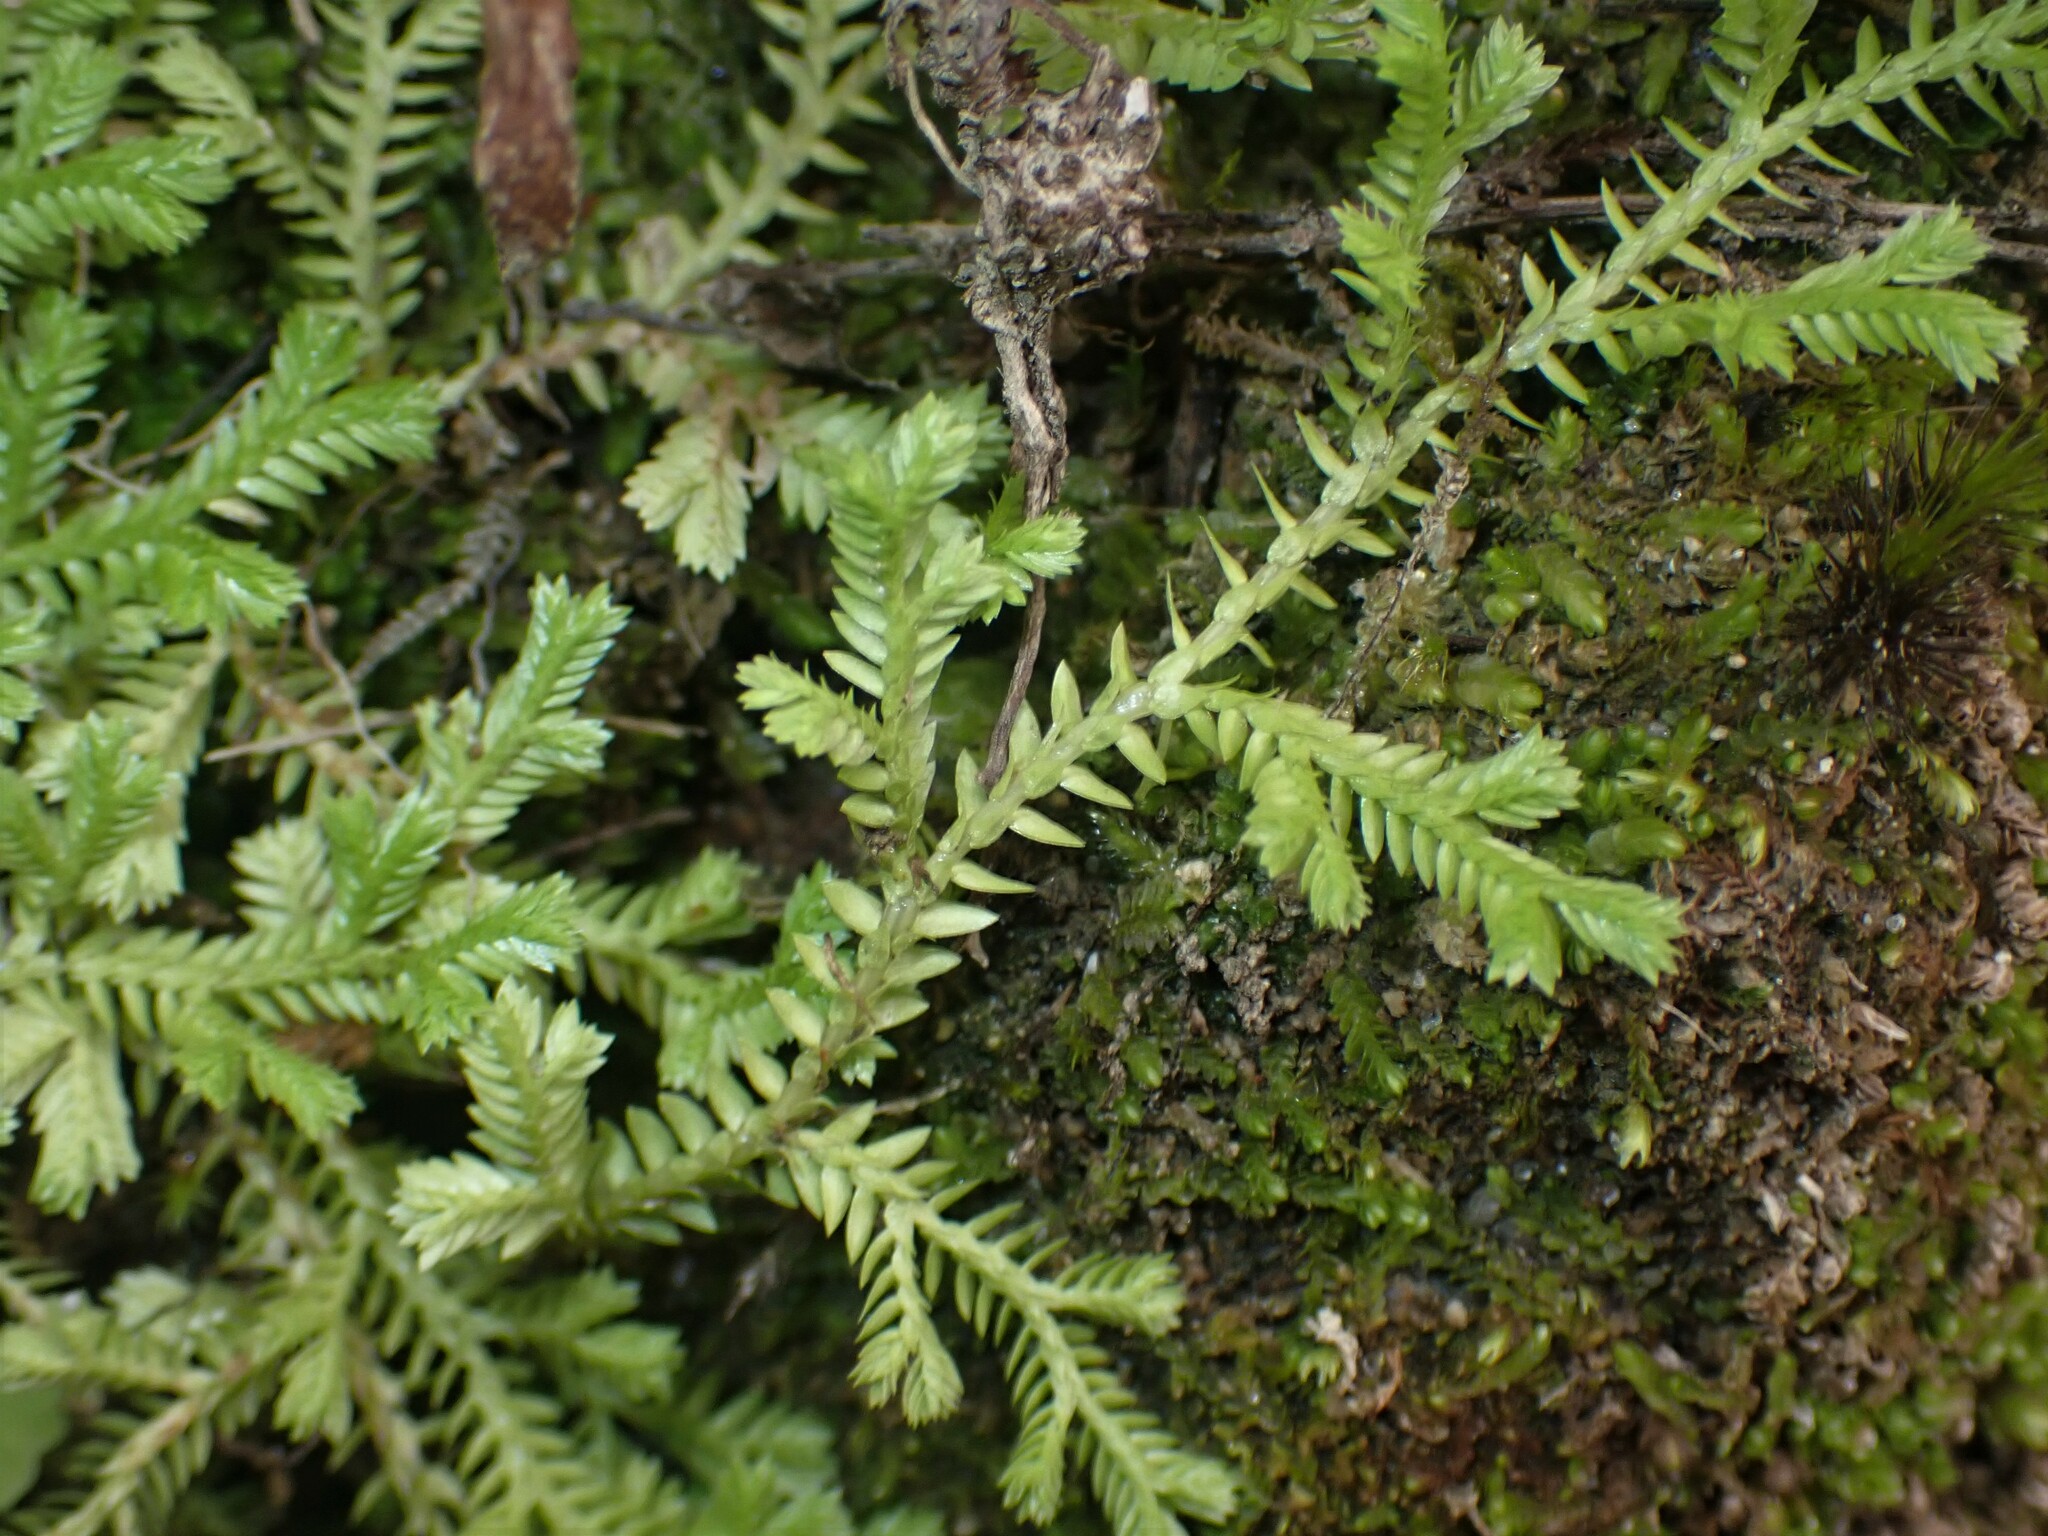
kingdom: Plantae
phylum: Tracheophyta
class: Lycopodiopsida
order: Selaginellales
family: Selaginellaceae
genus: Selaginella
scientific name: Selaginella kraussiana
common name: Krauss' spikemoss
